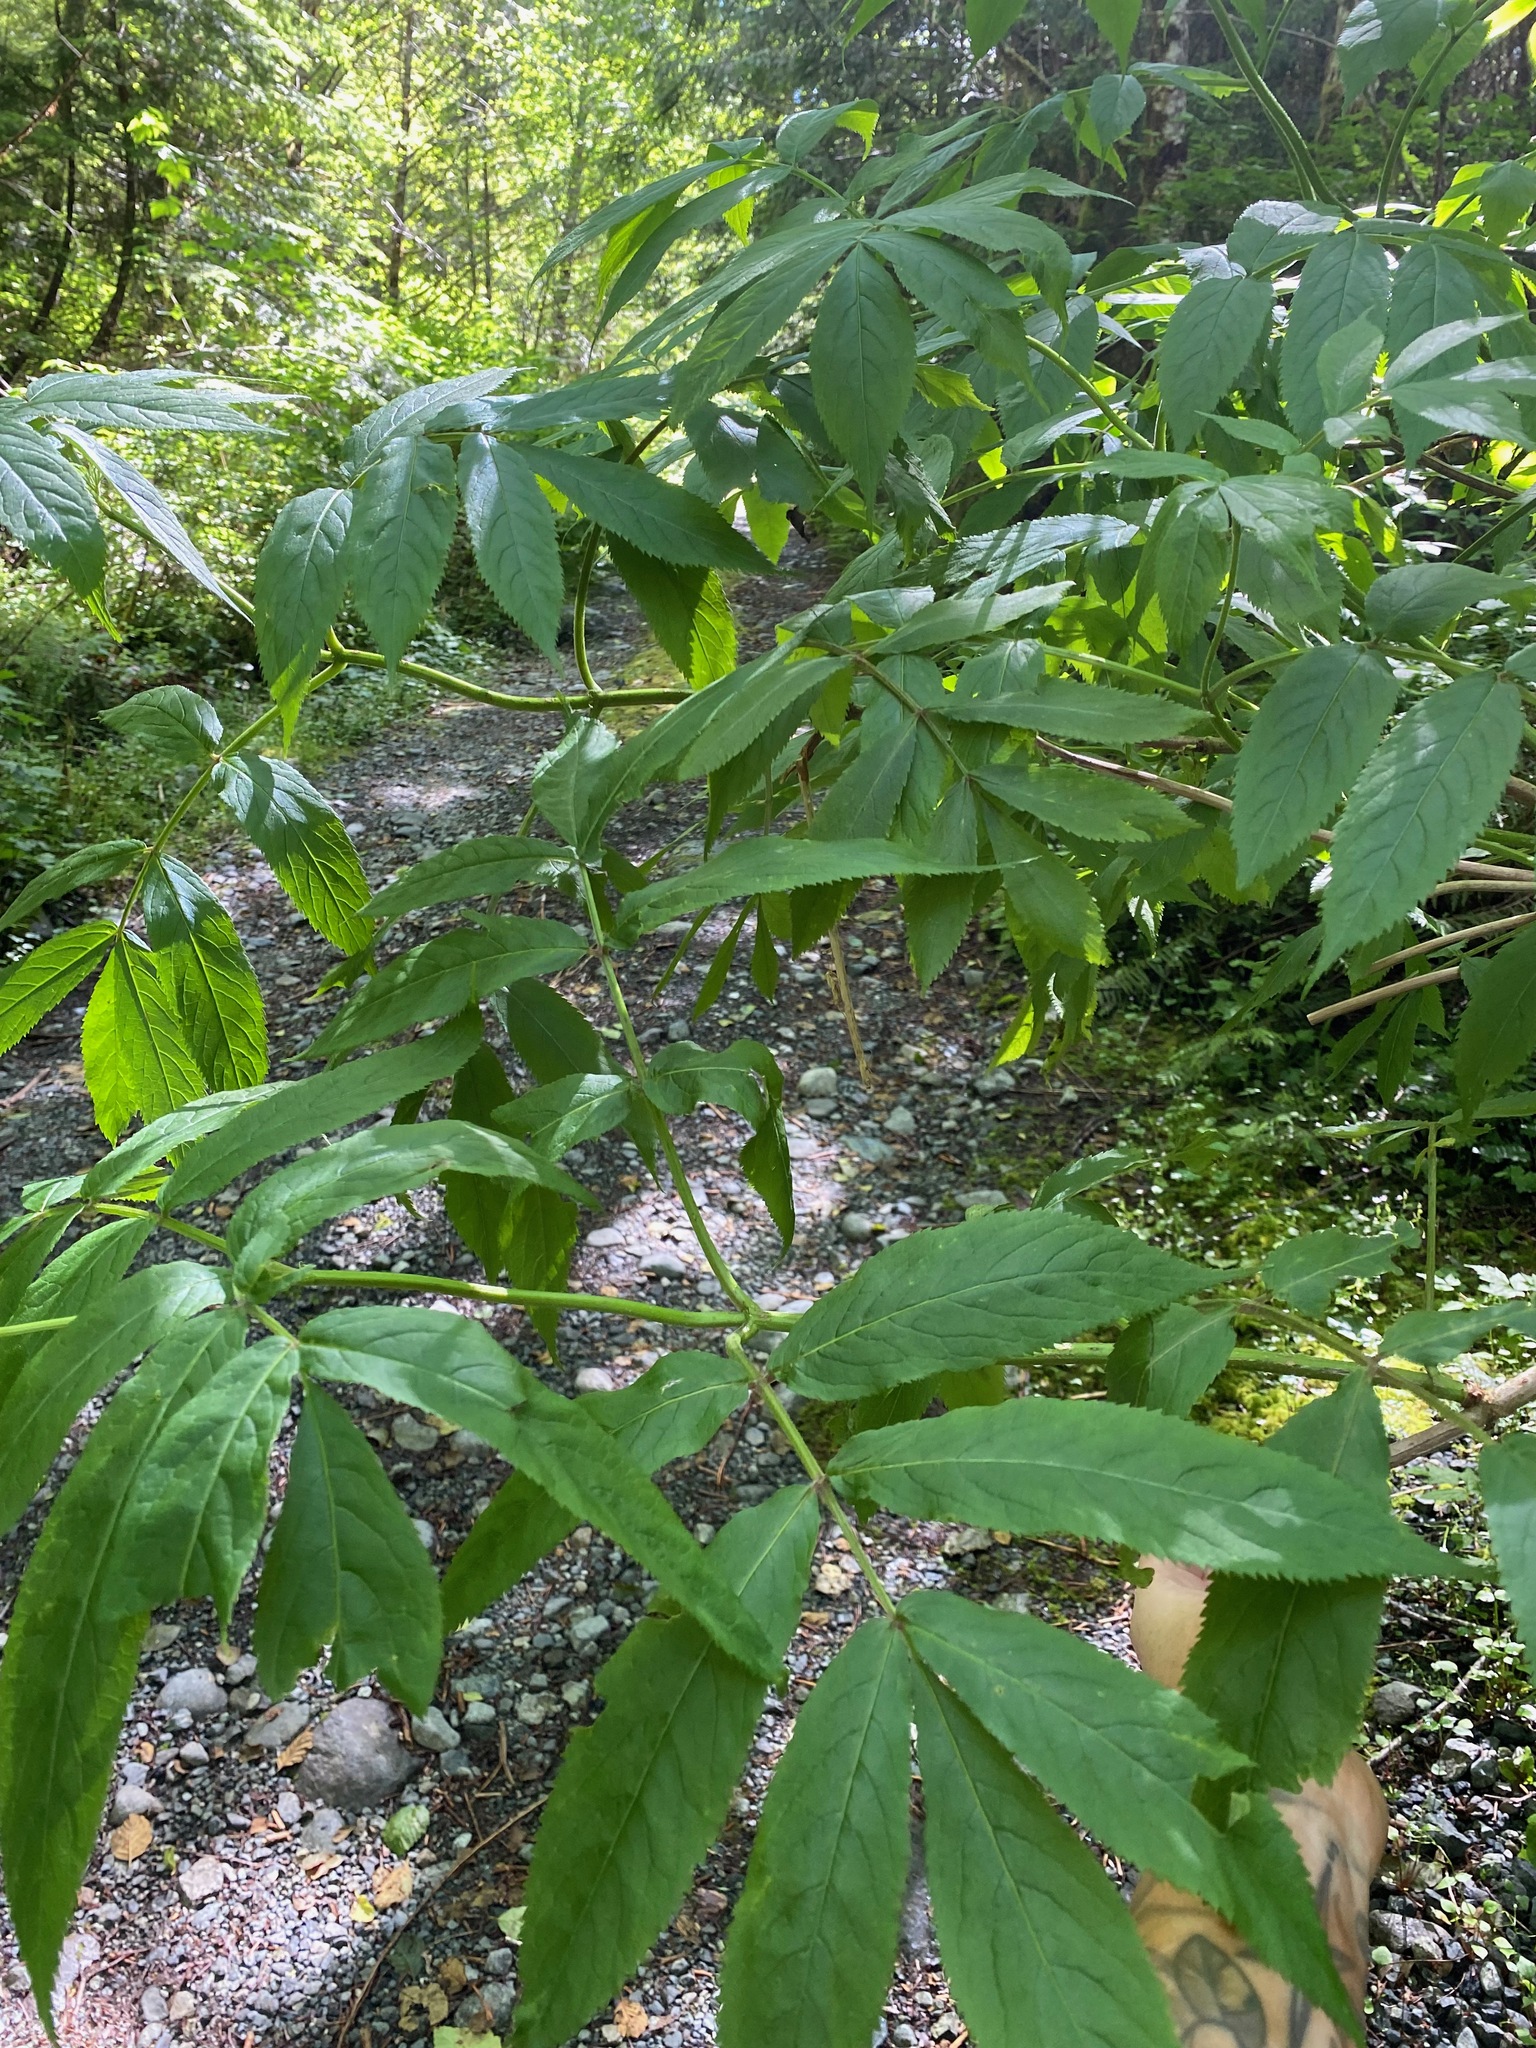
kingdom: Plantae
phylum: Tracheophyta
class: Magnoliopsida
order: Dipsacales
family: Viburnaceae
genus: Sambucus
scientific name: Sambucus racemosa
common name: Red-berried elder
